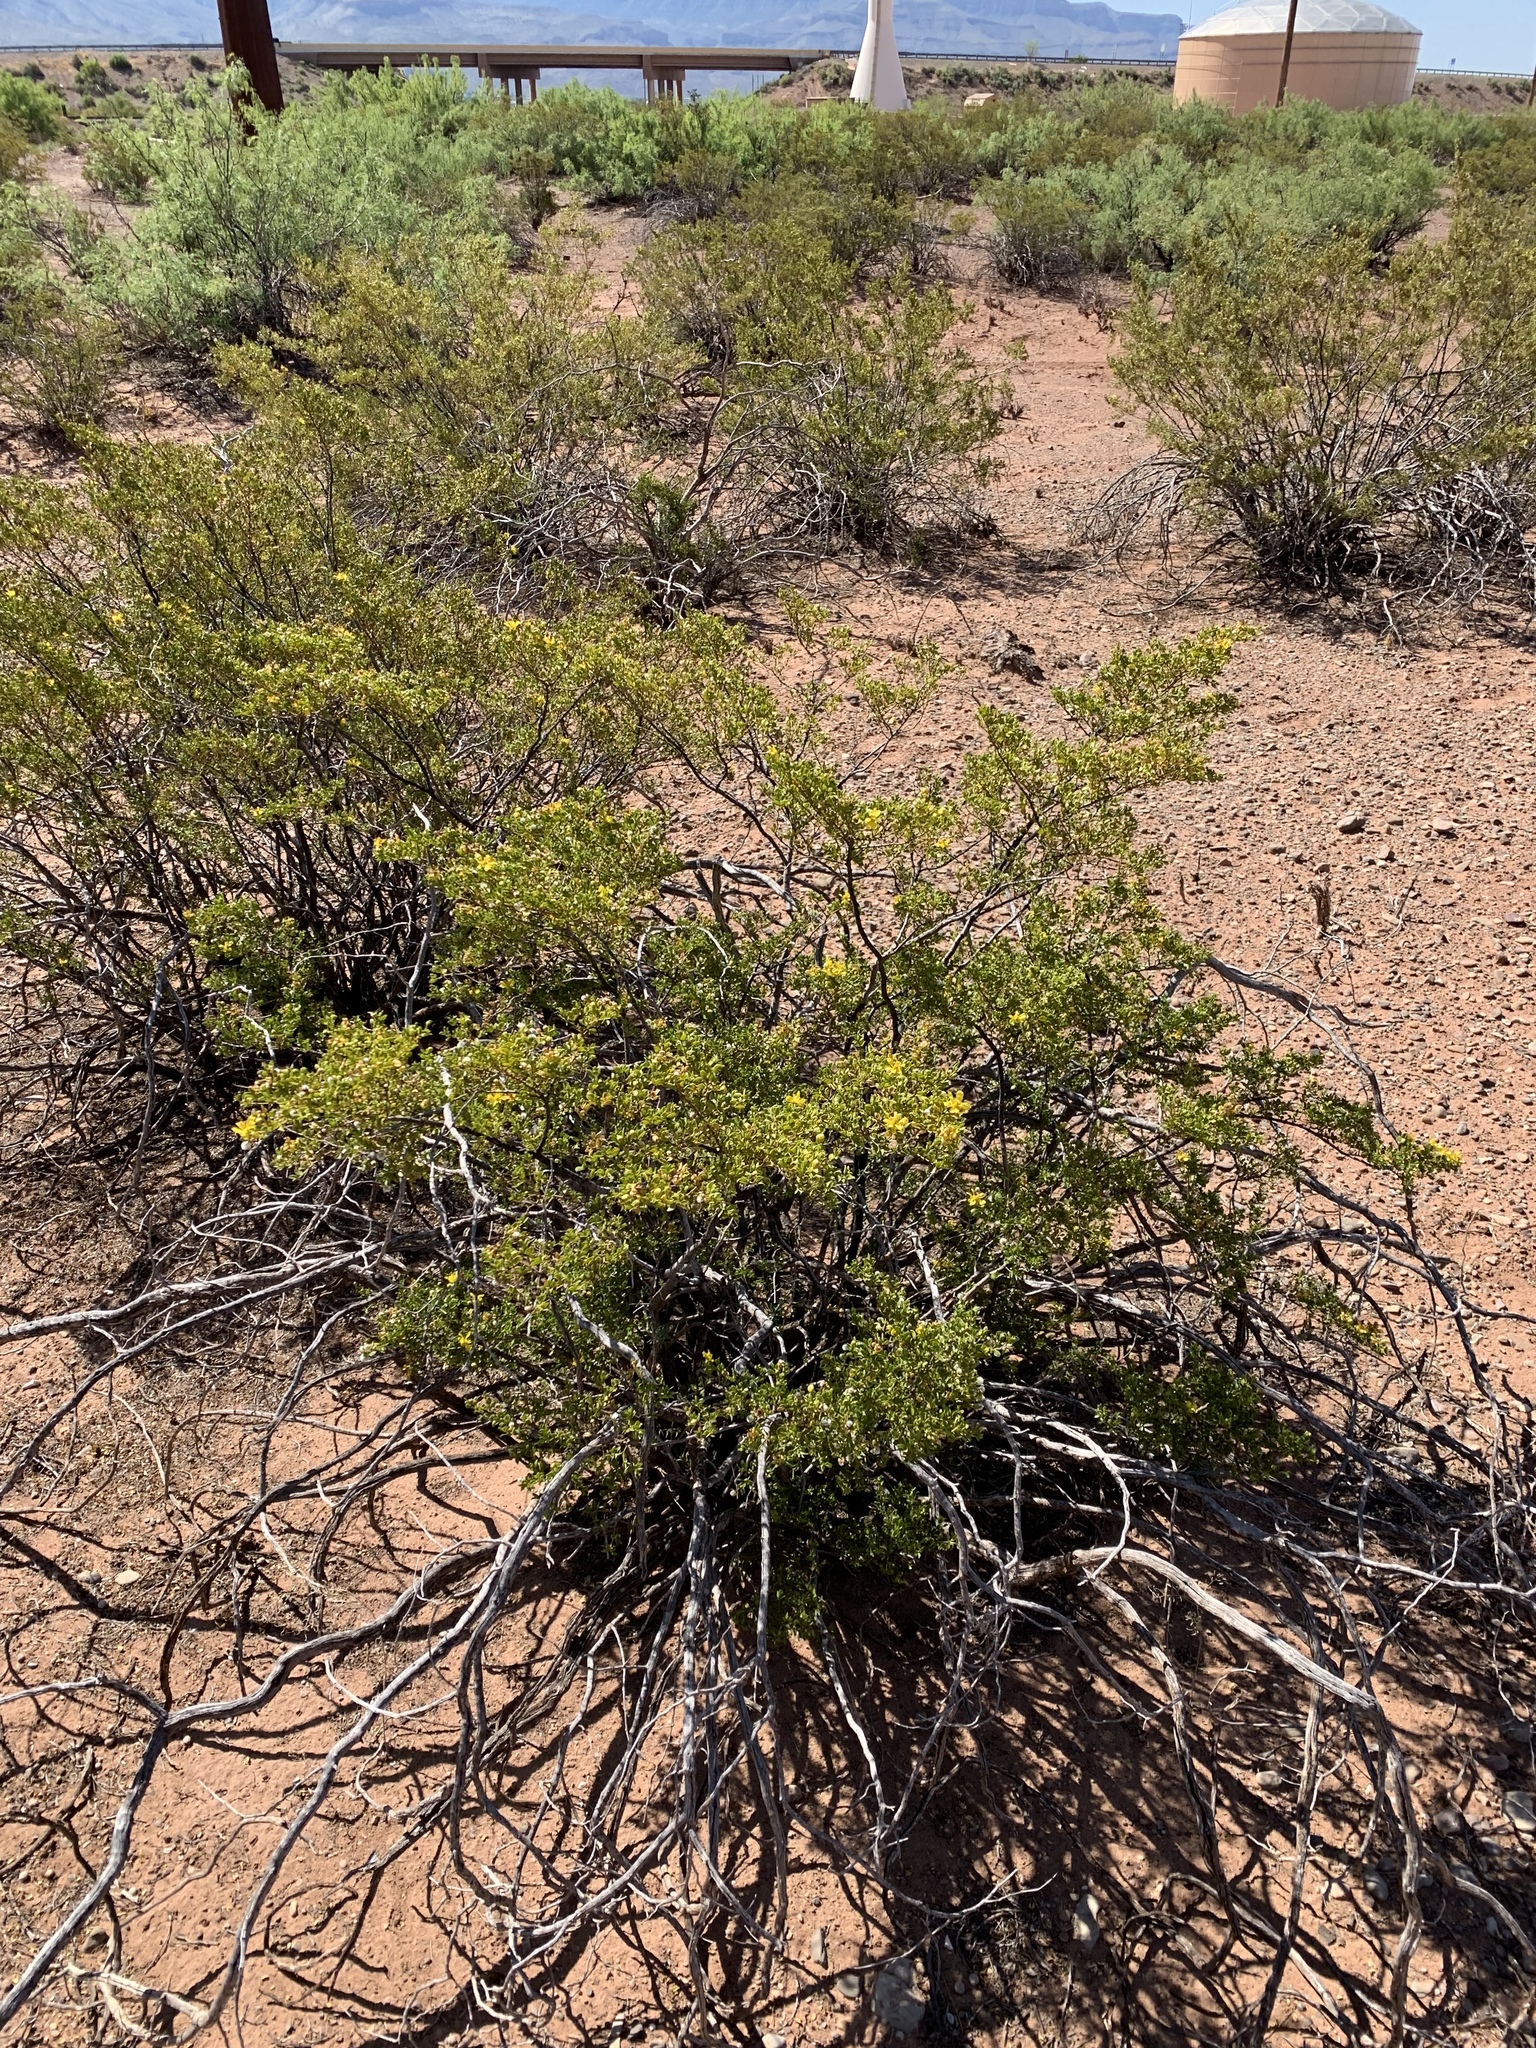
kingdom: Plantae
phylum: Tracheophyta
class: Magnoliopsida
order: Zygophyllales
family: Zygophyllaceae
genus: Larrea
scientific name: Larrea tridentata
